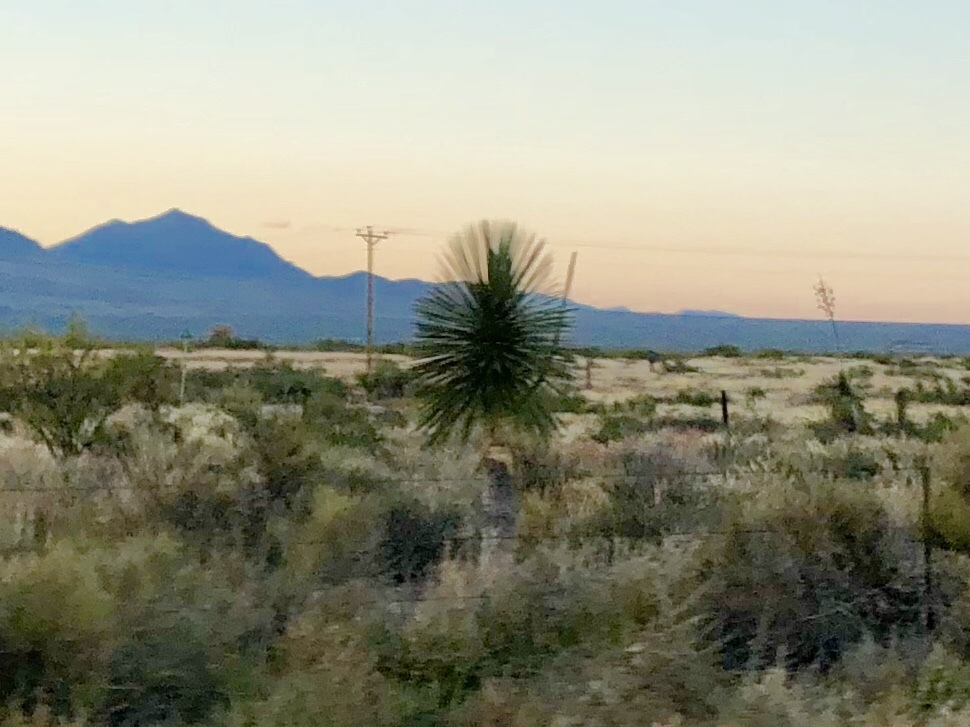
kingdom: Plantae
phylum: Tracheophyta
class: Liliopsida
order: Asparagales
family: Asparagaceae
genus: Yucca
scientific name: Yucca elata
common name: Palmella
